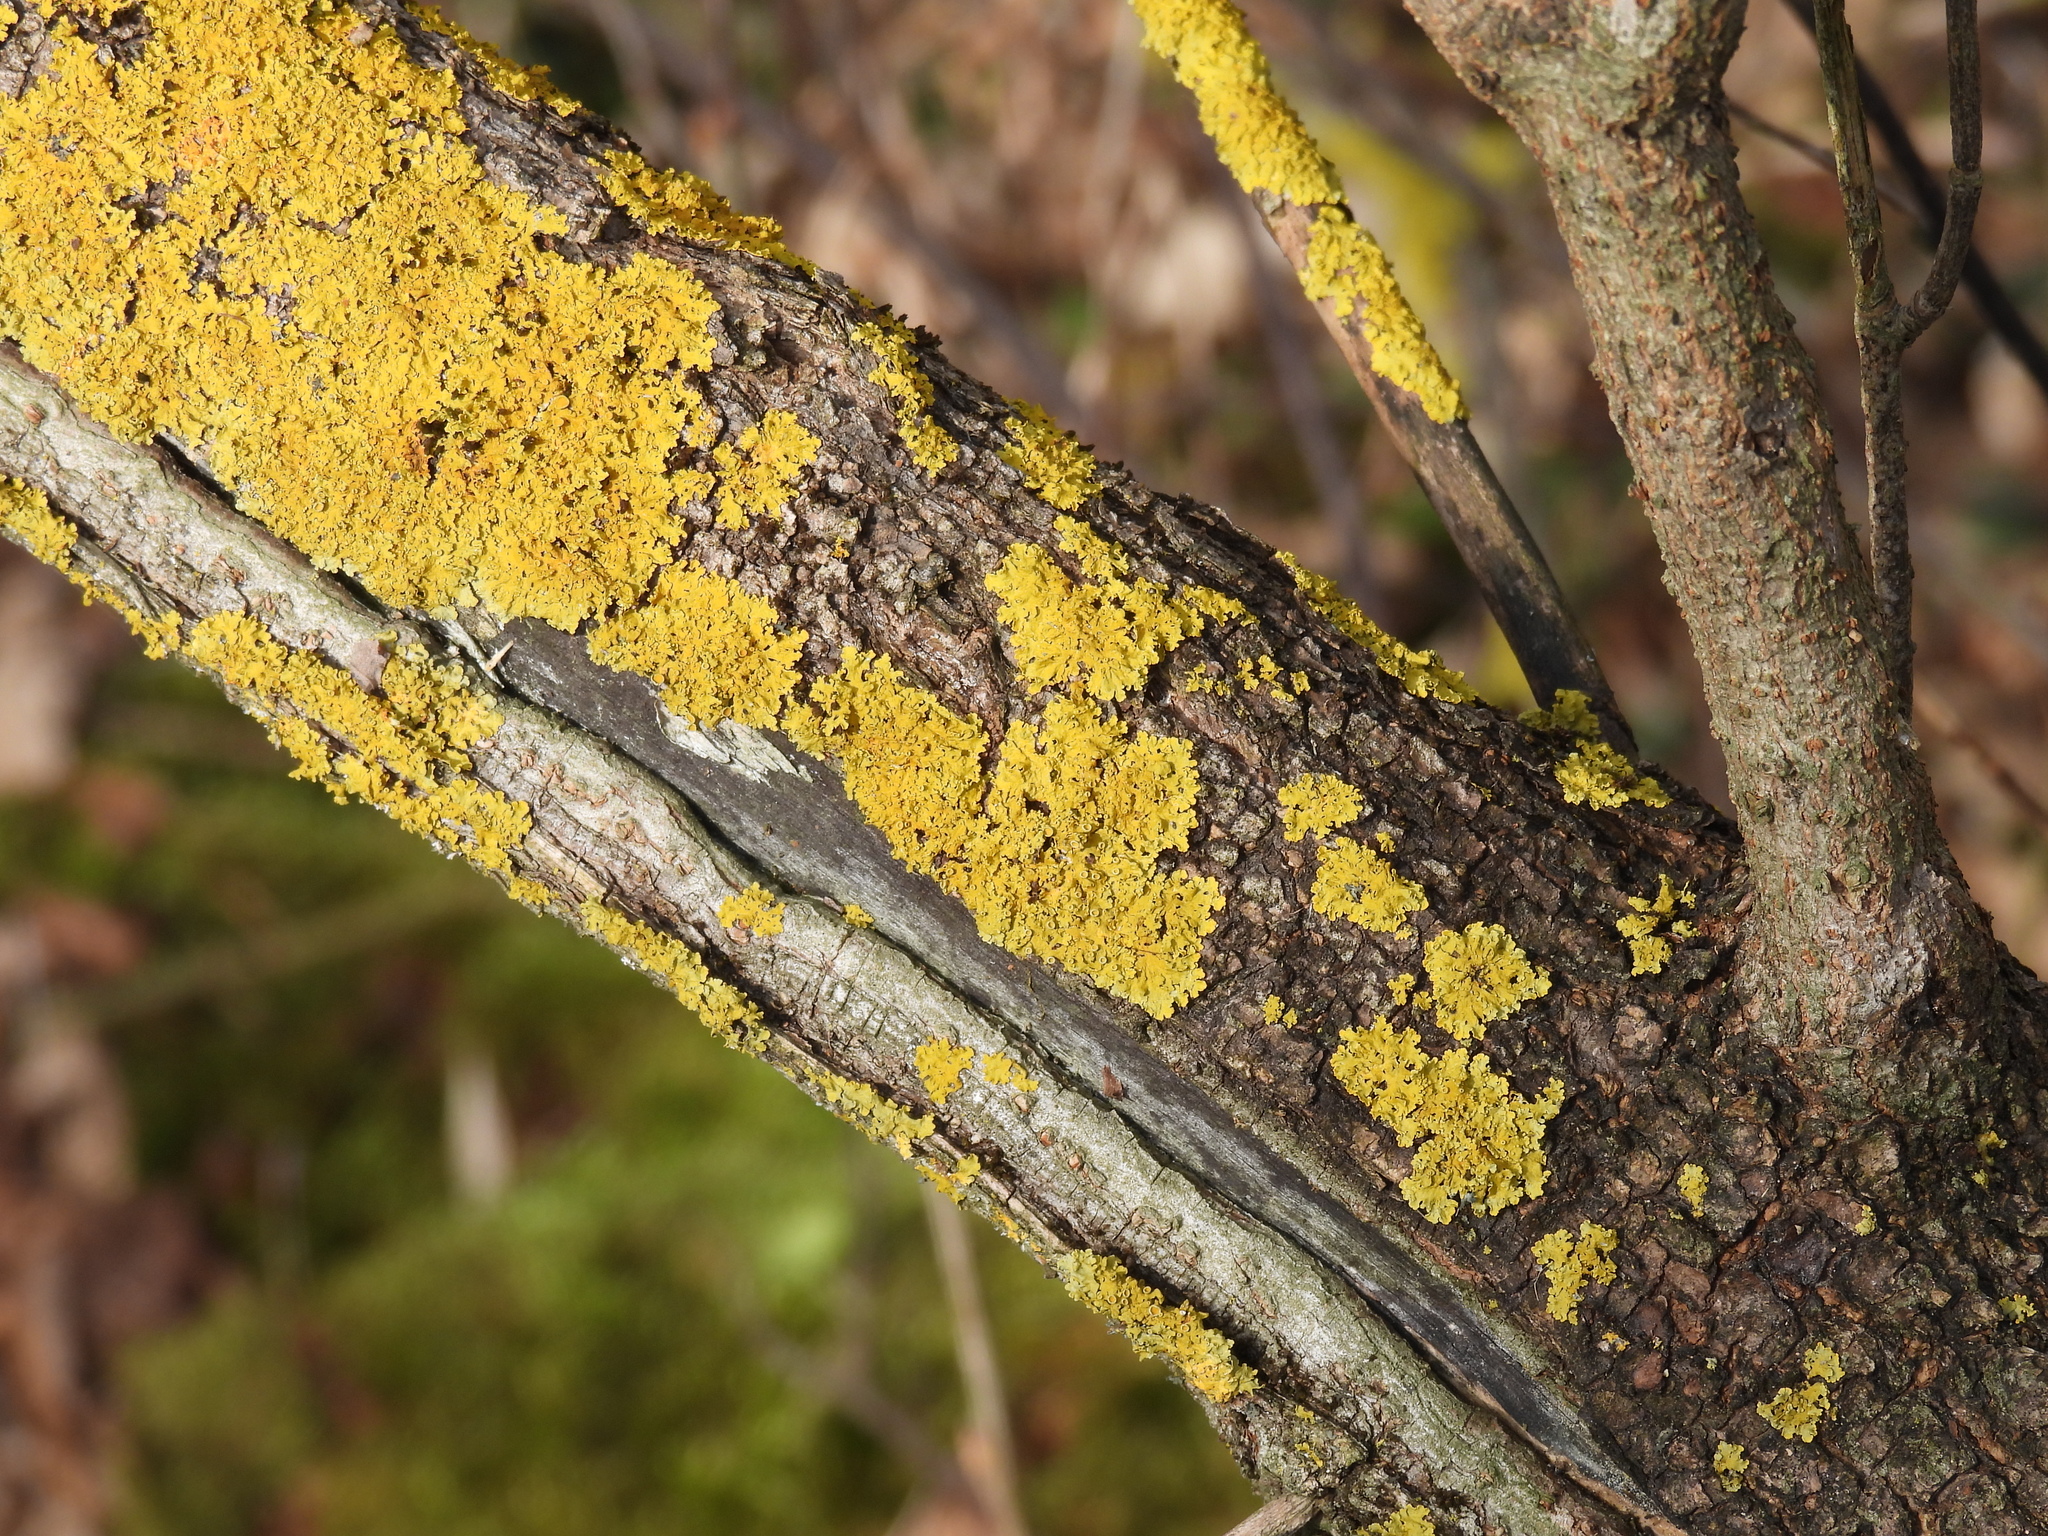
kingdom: Fungi
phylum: Ascomycota
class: Lecanoromycetes
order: Teloschistales
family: Teloschistaceae
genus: Xanthoria
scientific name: Xanthoria parietina
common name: Common orange lichen
